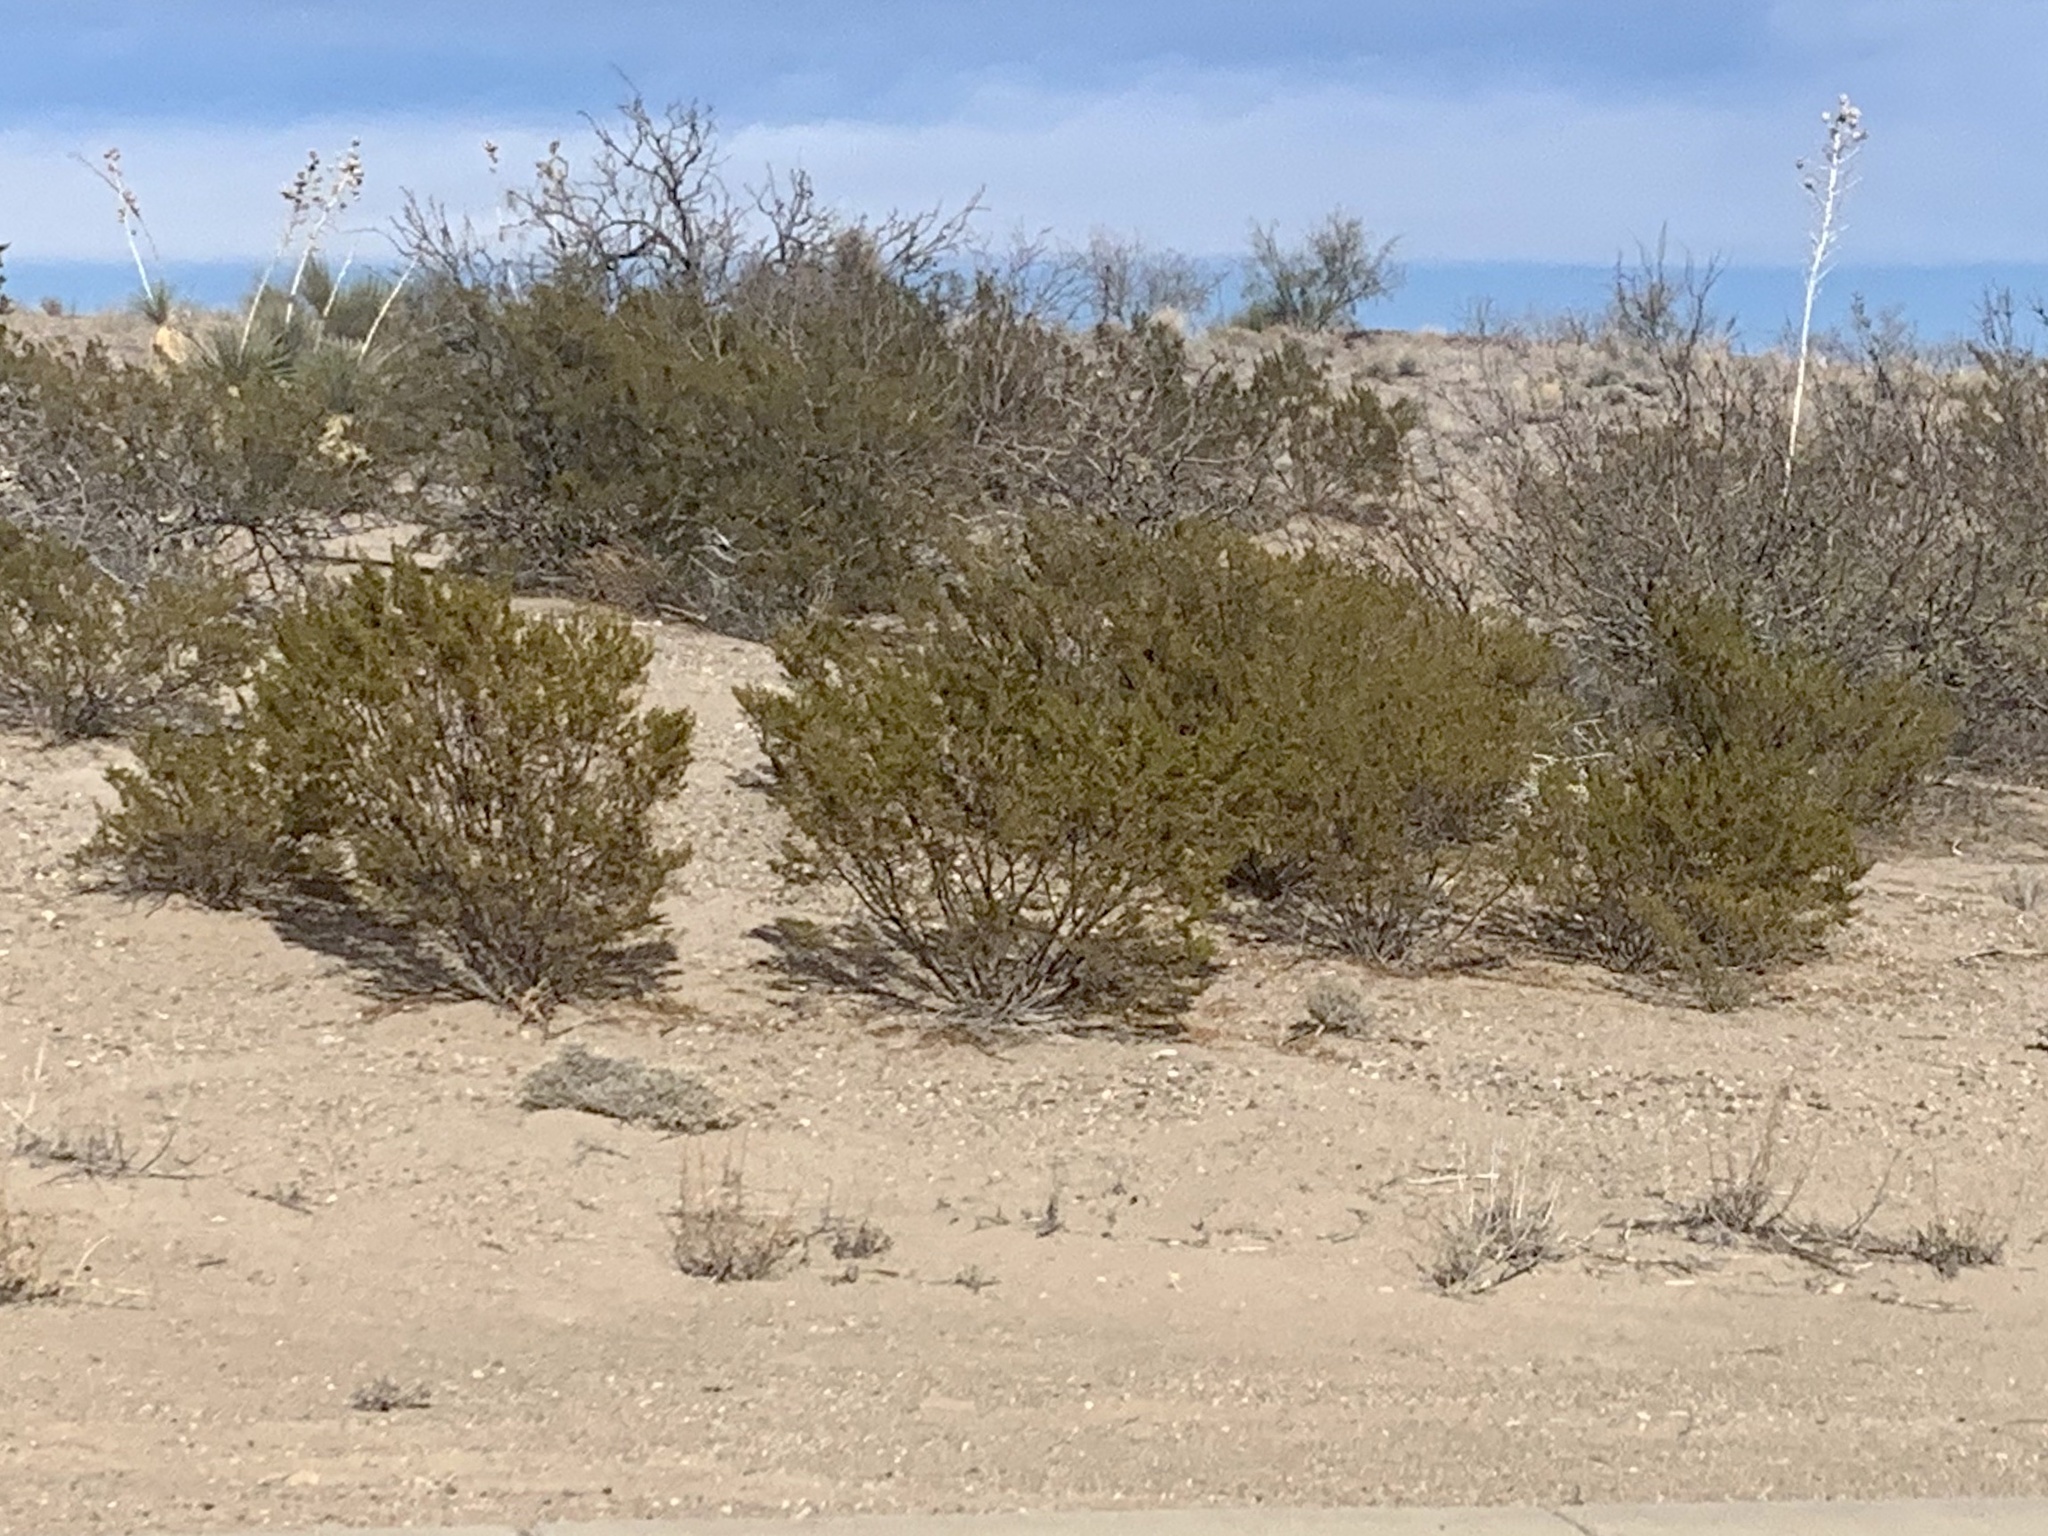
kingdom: Plantae
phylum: Tracheophyta
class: Magnoliopsida
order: Zygophyllales
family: Zygophyllaceae
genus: Larrea
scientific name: Larrea tridentata
